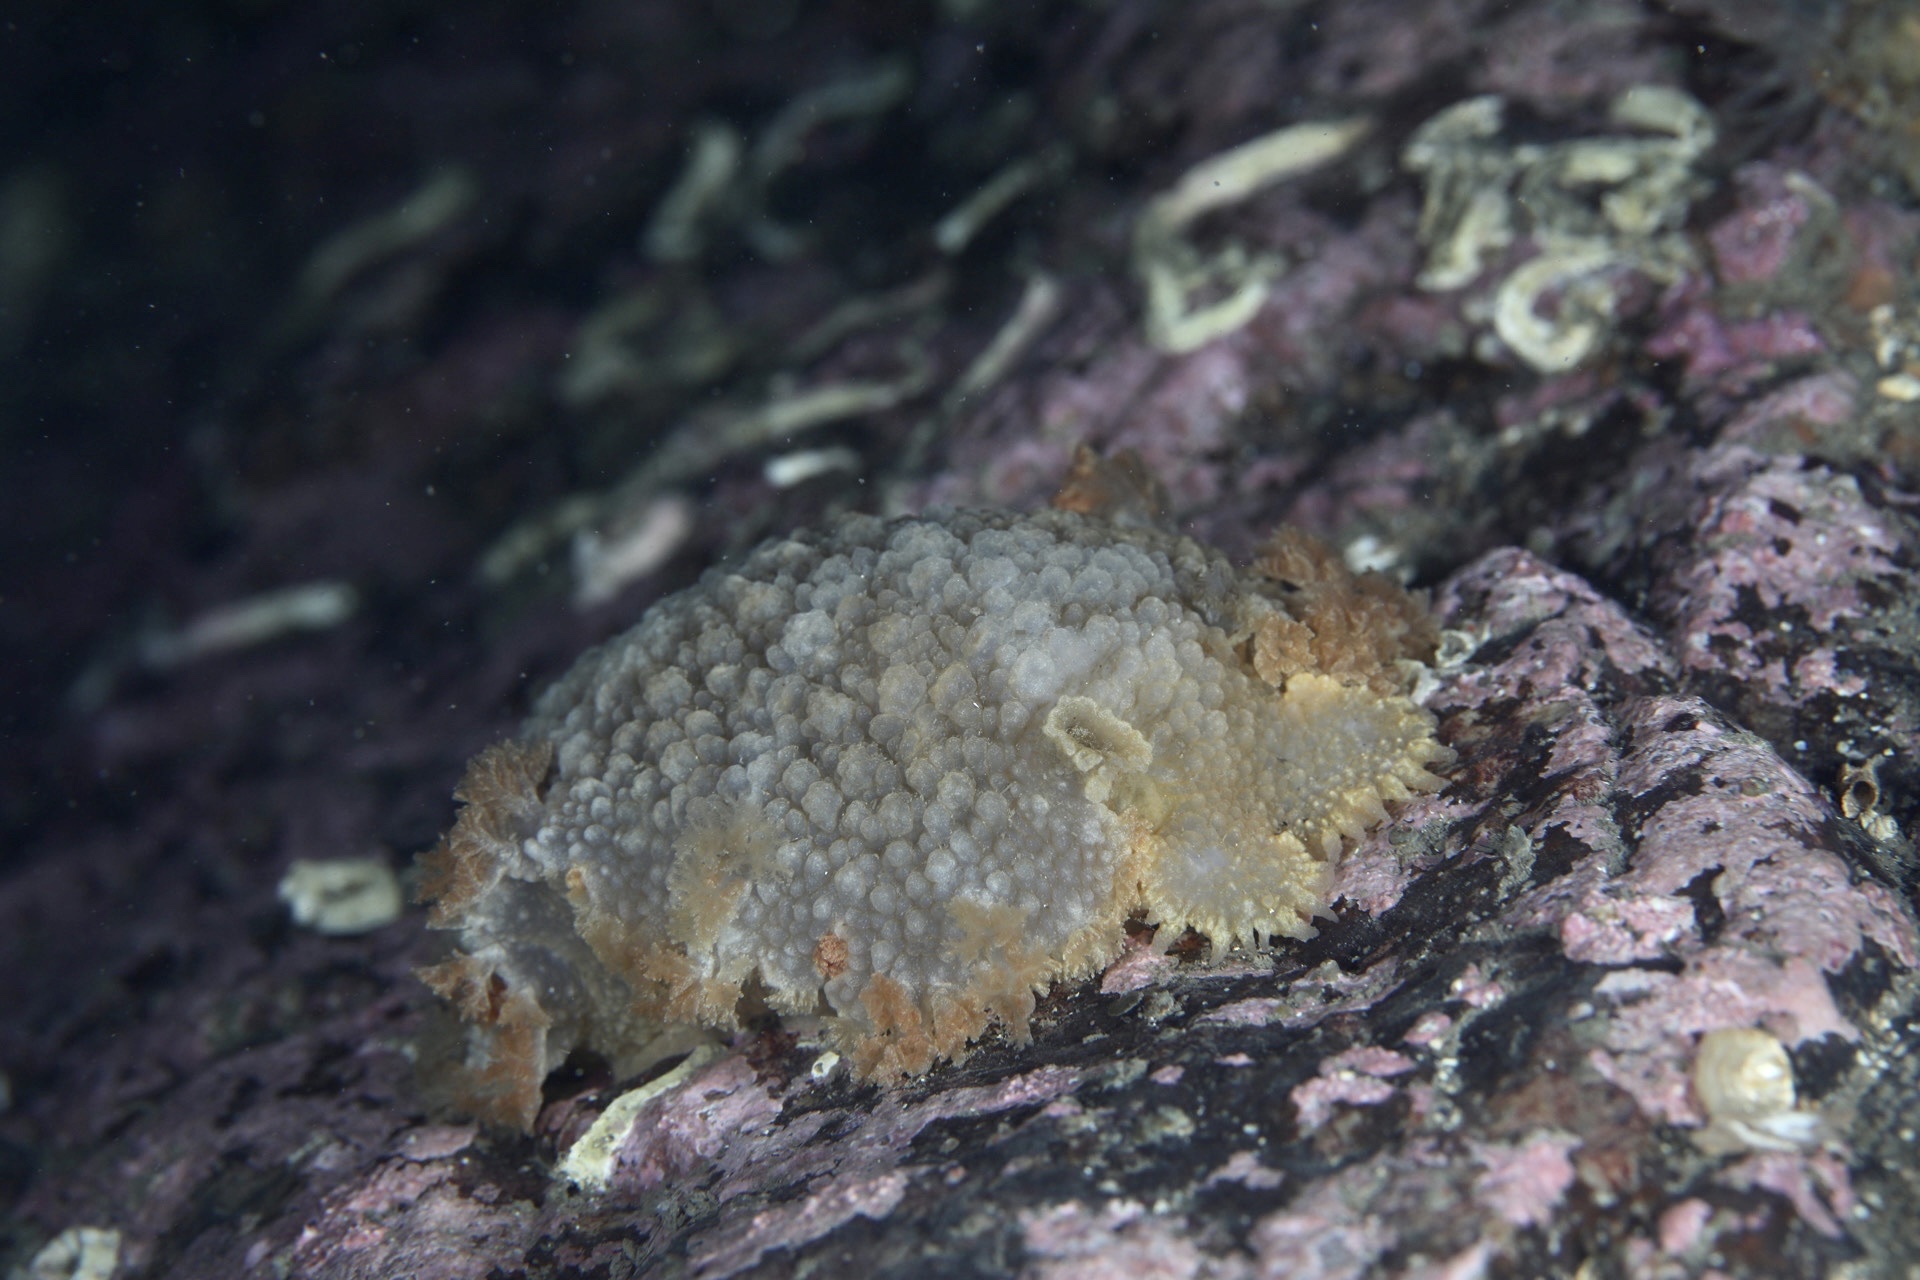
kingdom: Animalia
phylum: Mollusca
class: Gastropoda
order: Nudibranchia
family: Tritoniidae
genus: Tritonia
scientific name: Tritonia hombergii
